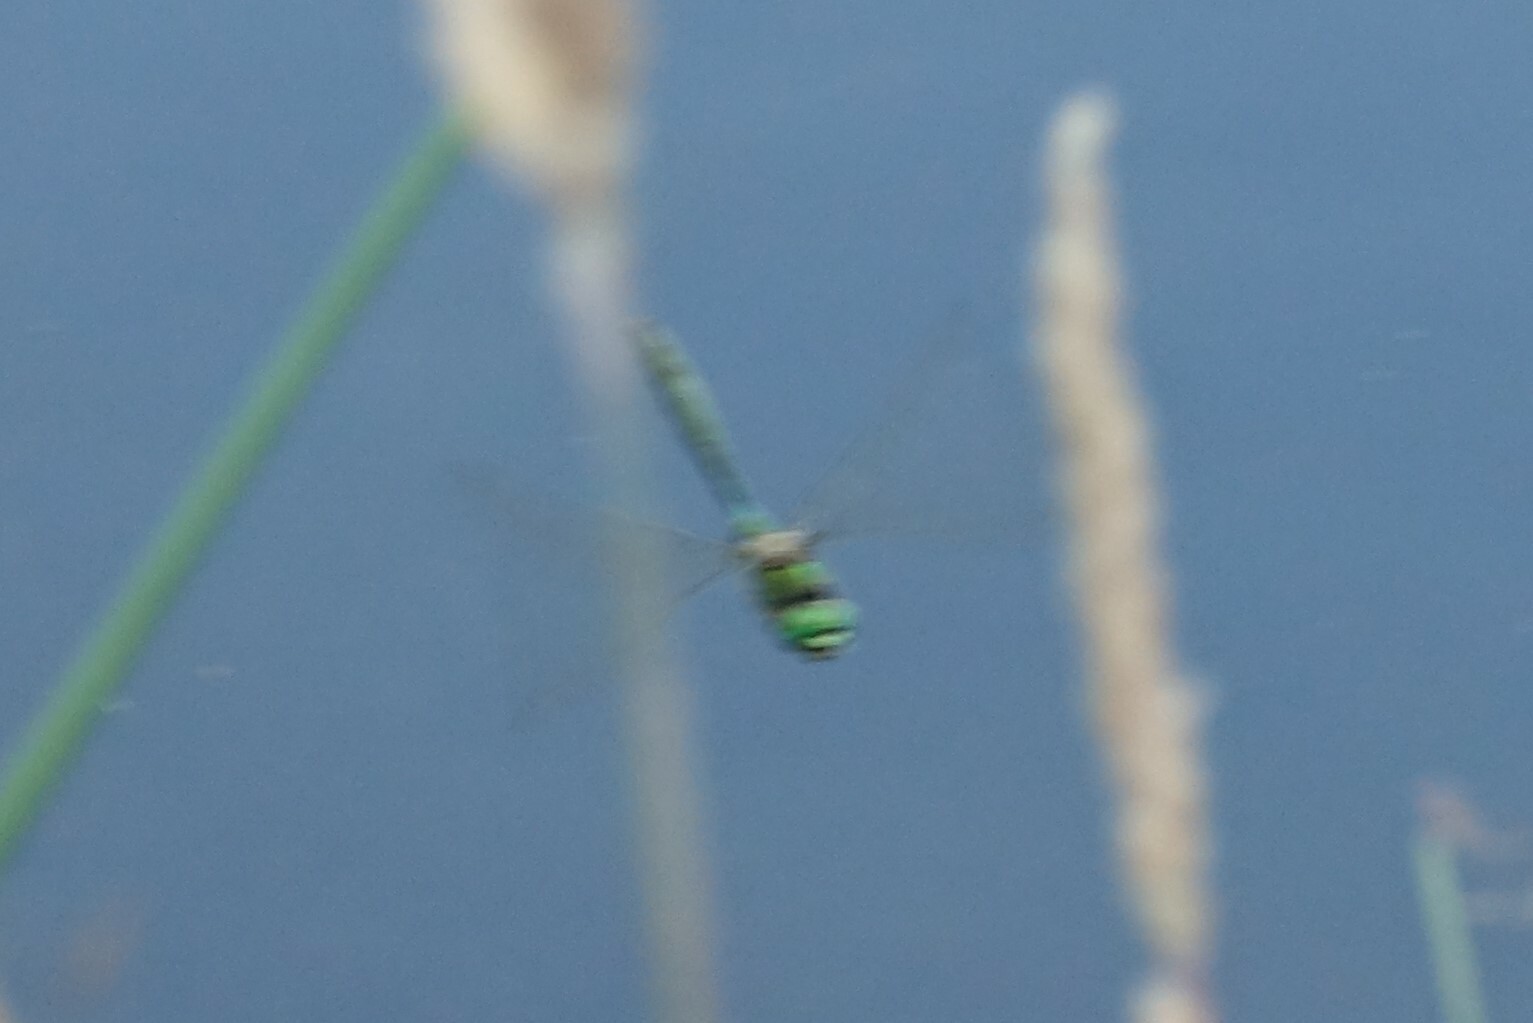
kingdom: Animalia
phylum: Arthropoda
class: Insecta
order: Odonata
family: Corduliidae
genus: Somatochlora
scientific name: Somatochlora metallica
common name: Brilliant emerald
